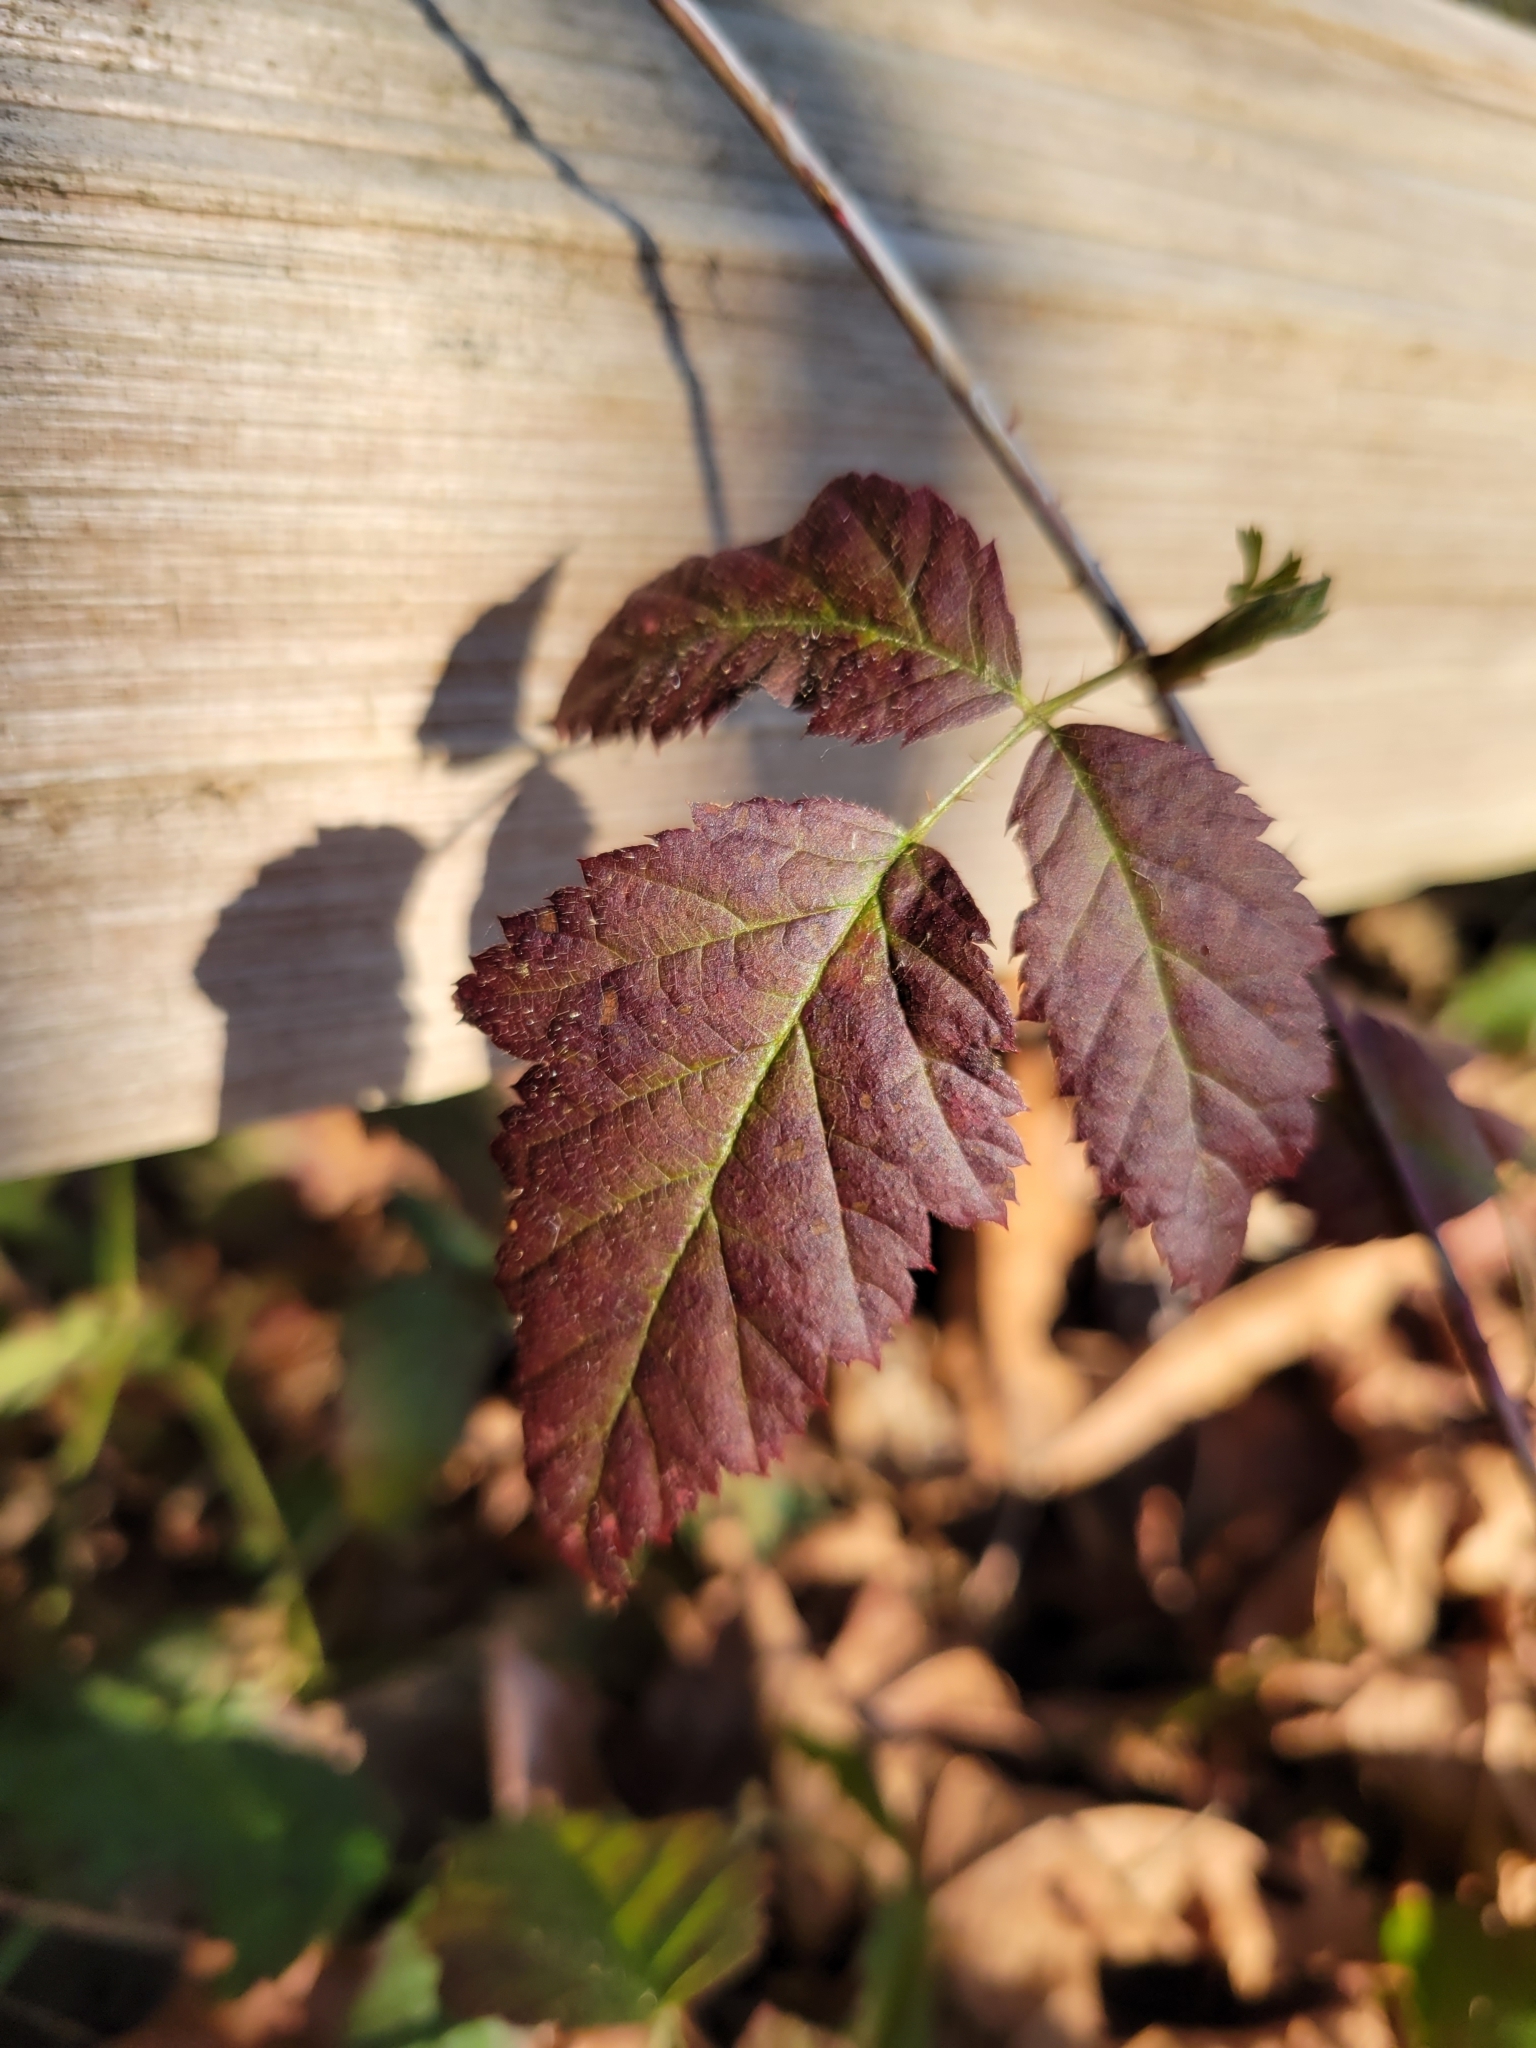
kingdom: Plantae
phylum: Tracheophyta
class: Magnoliopsida
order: Rosales
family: Rosaceae
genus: Rubus
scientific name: Rubus ursinus
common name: Pacific blackberry
